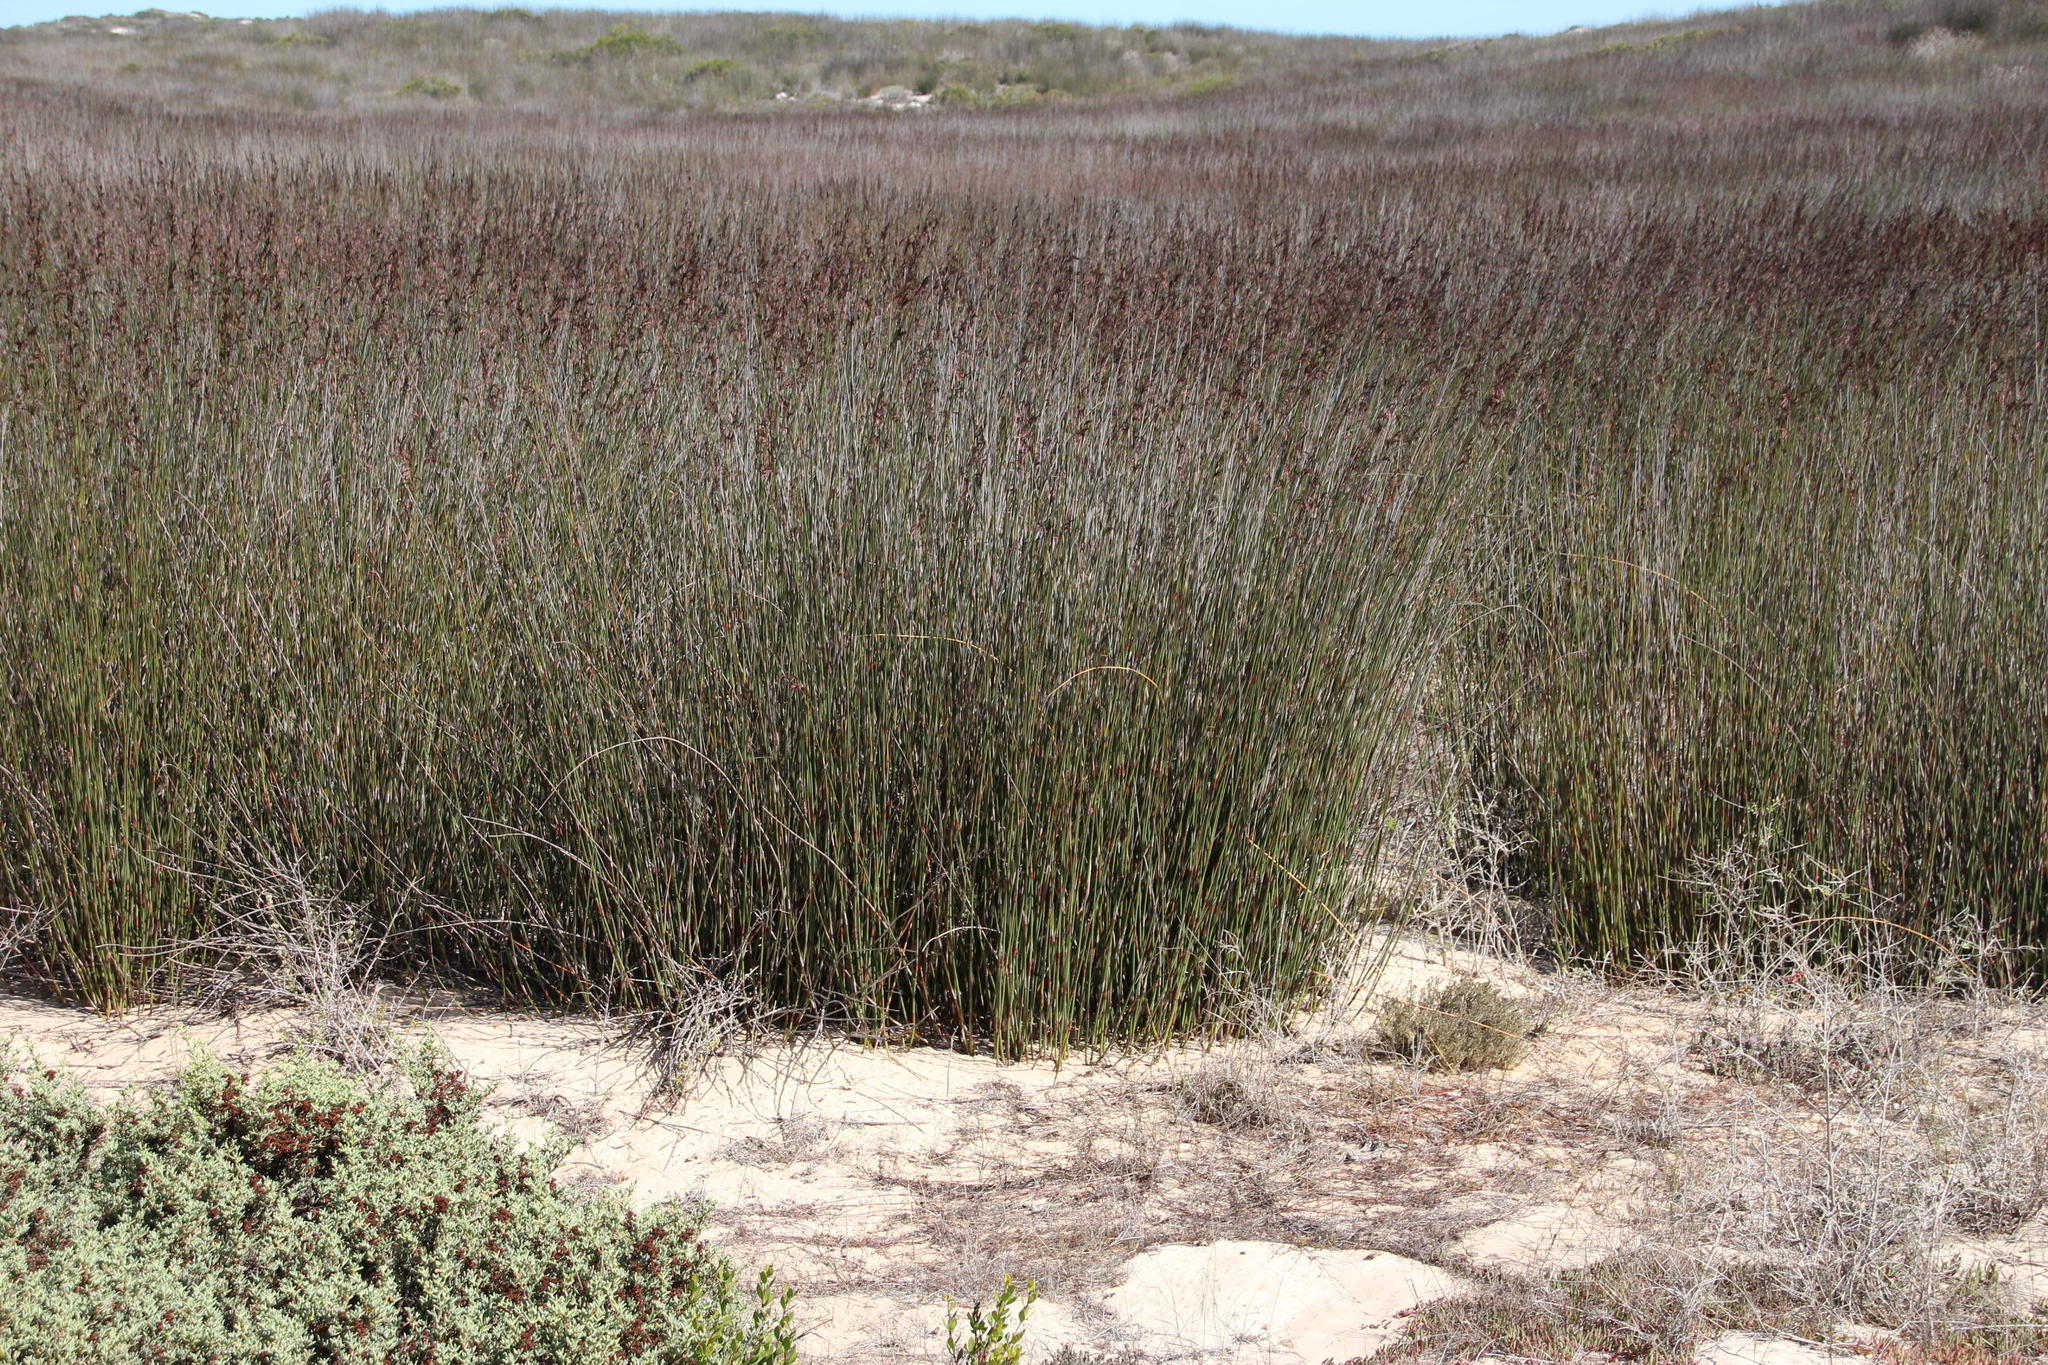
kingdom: Plantae
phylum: Tracheophyta
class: Liliopsida
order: Poales
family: Restionaceae
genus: Thamnochortus
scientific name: Thamnochortus spicigerus
